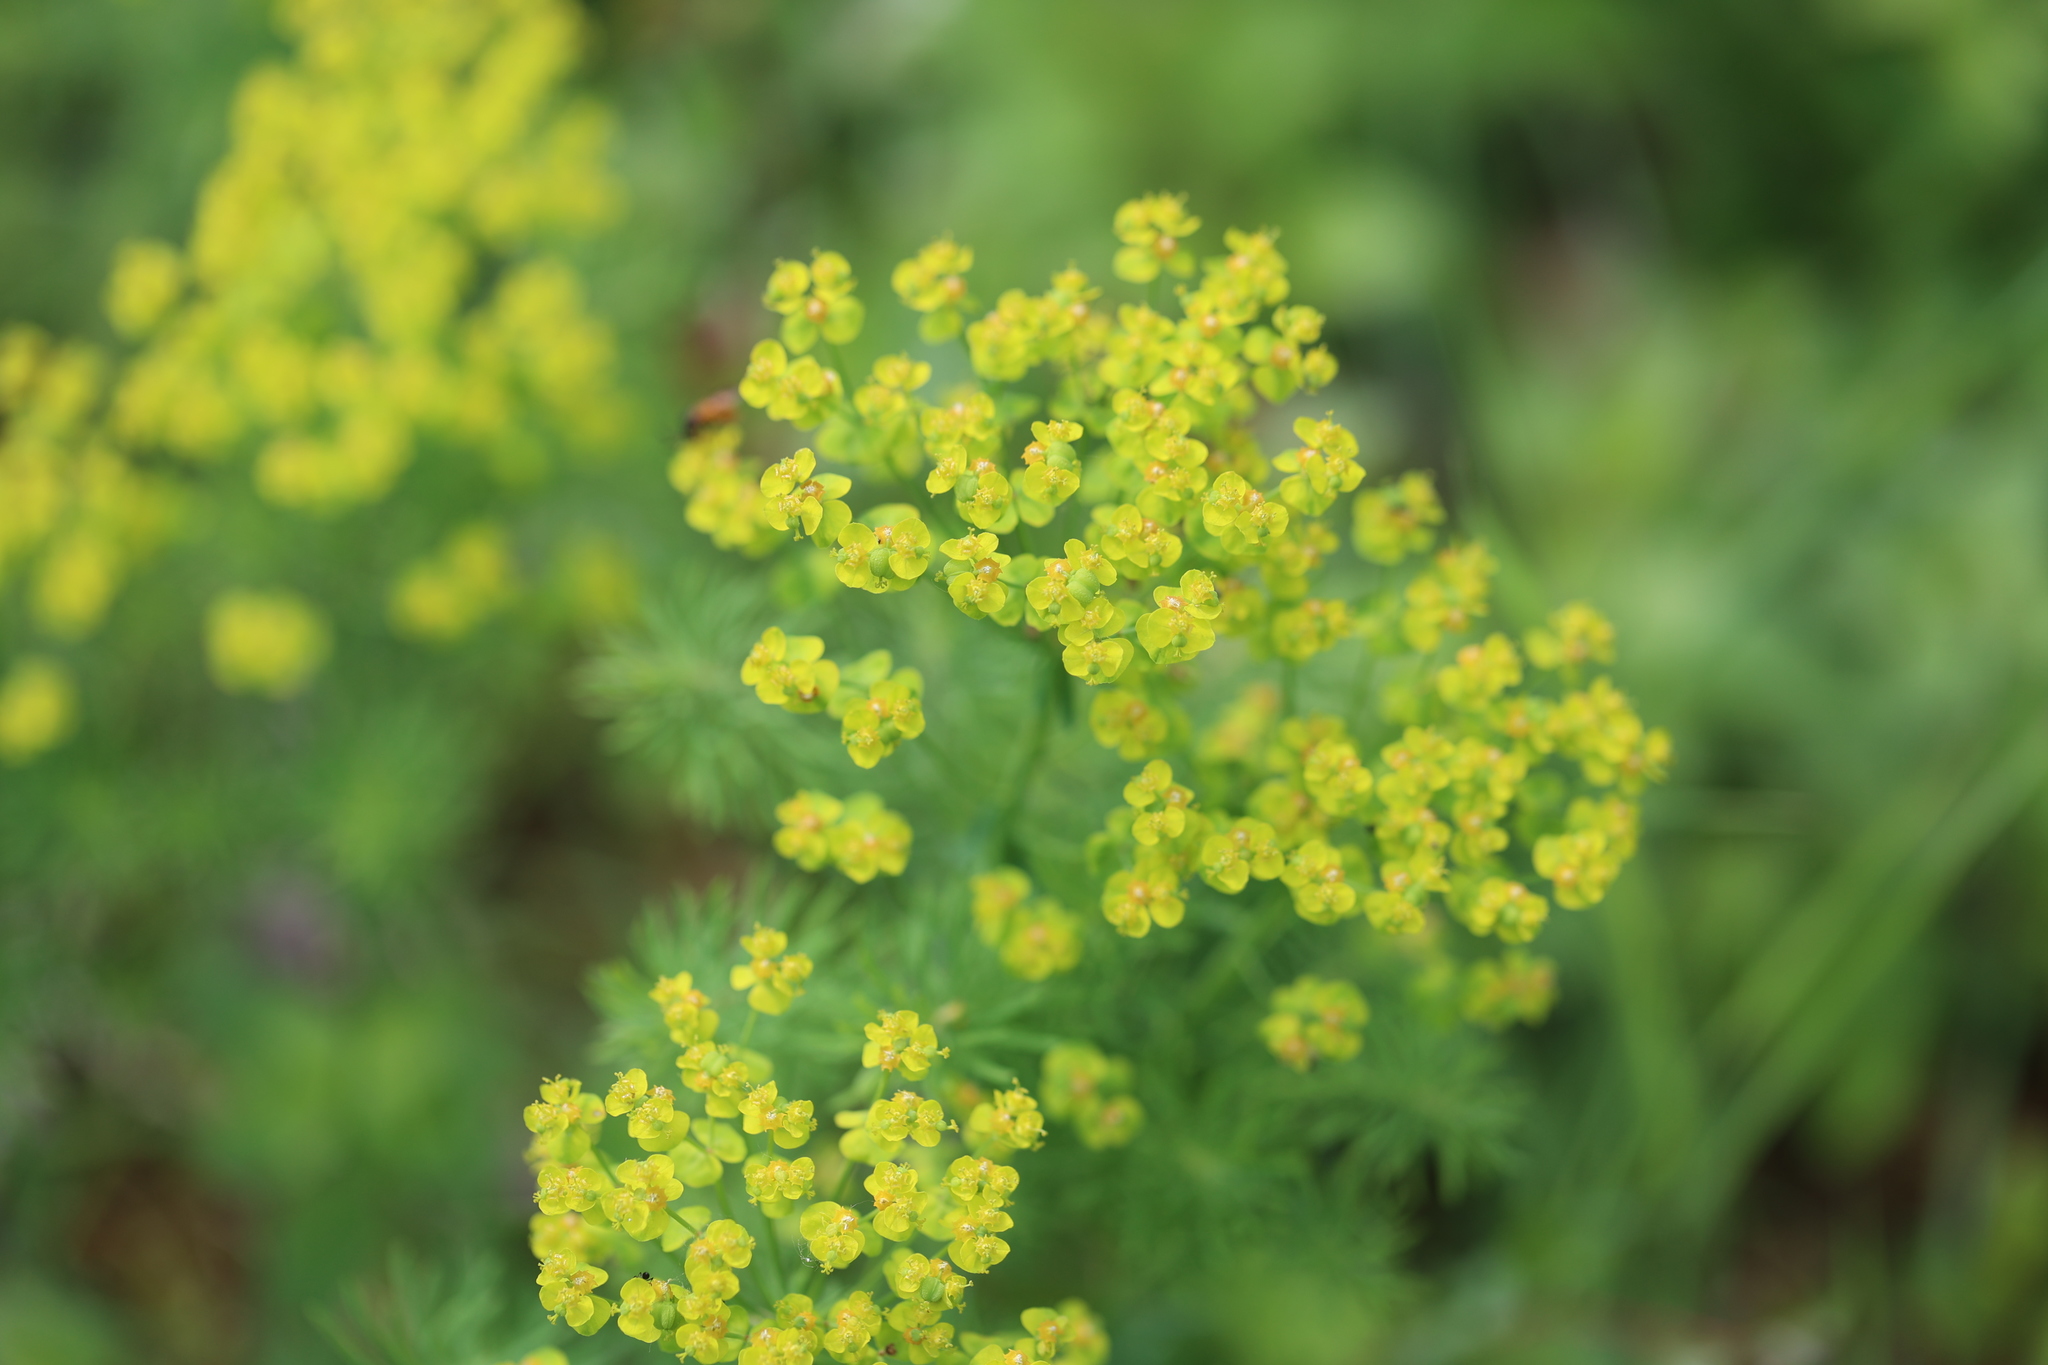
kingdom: Plantae
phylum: Tracheophyta
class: Magnoliopsida
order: Malpighiales
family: Euphorbiaceae
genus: Euphorbia
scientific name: Euphorbia cyparissias
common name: Cypress spurge
